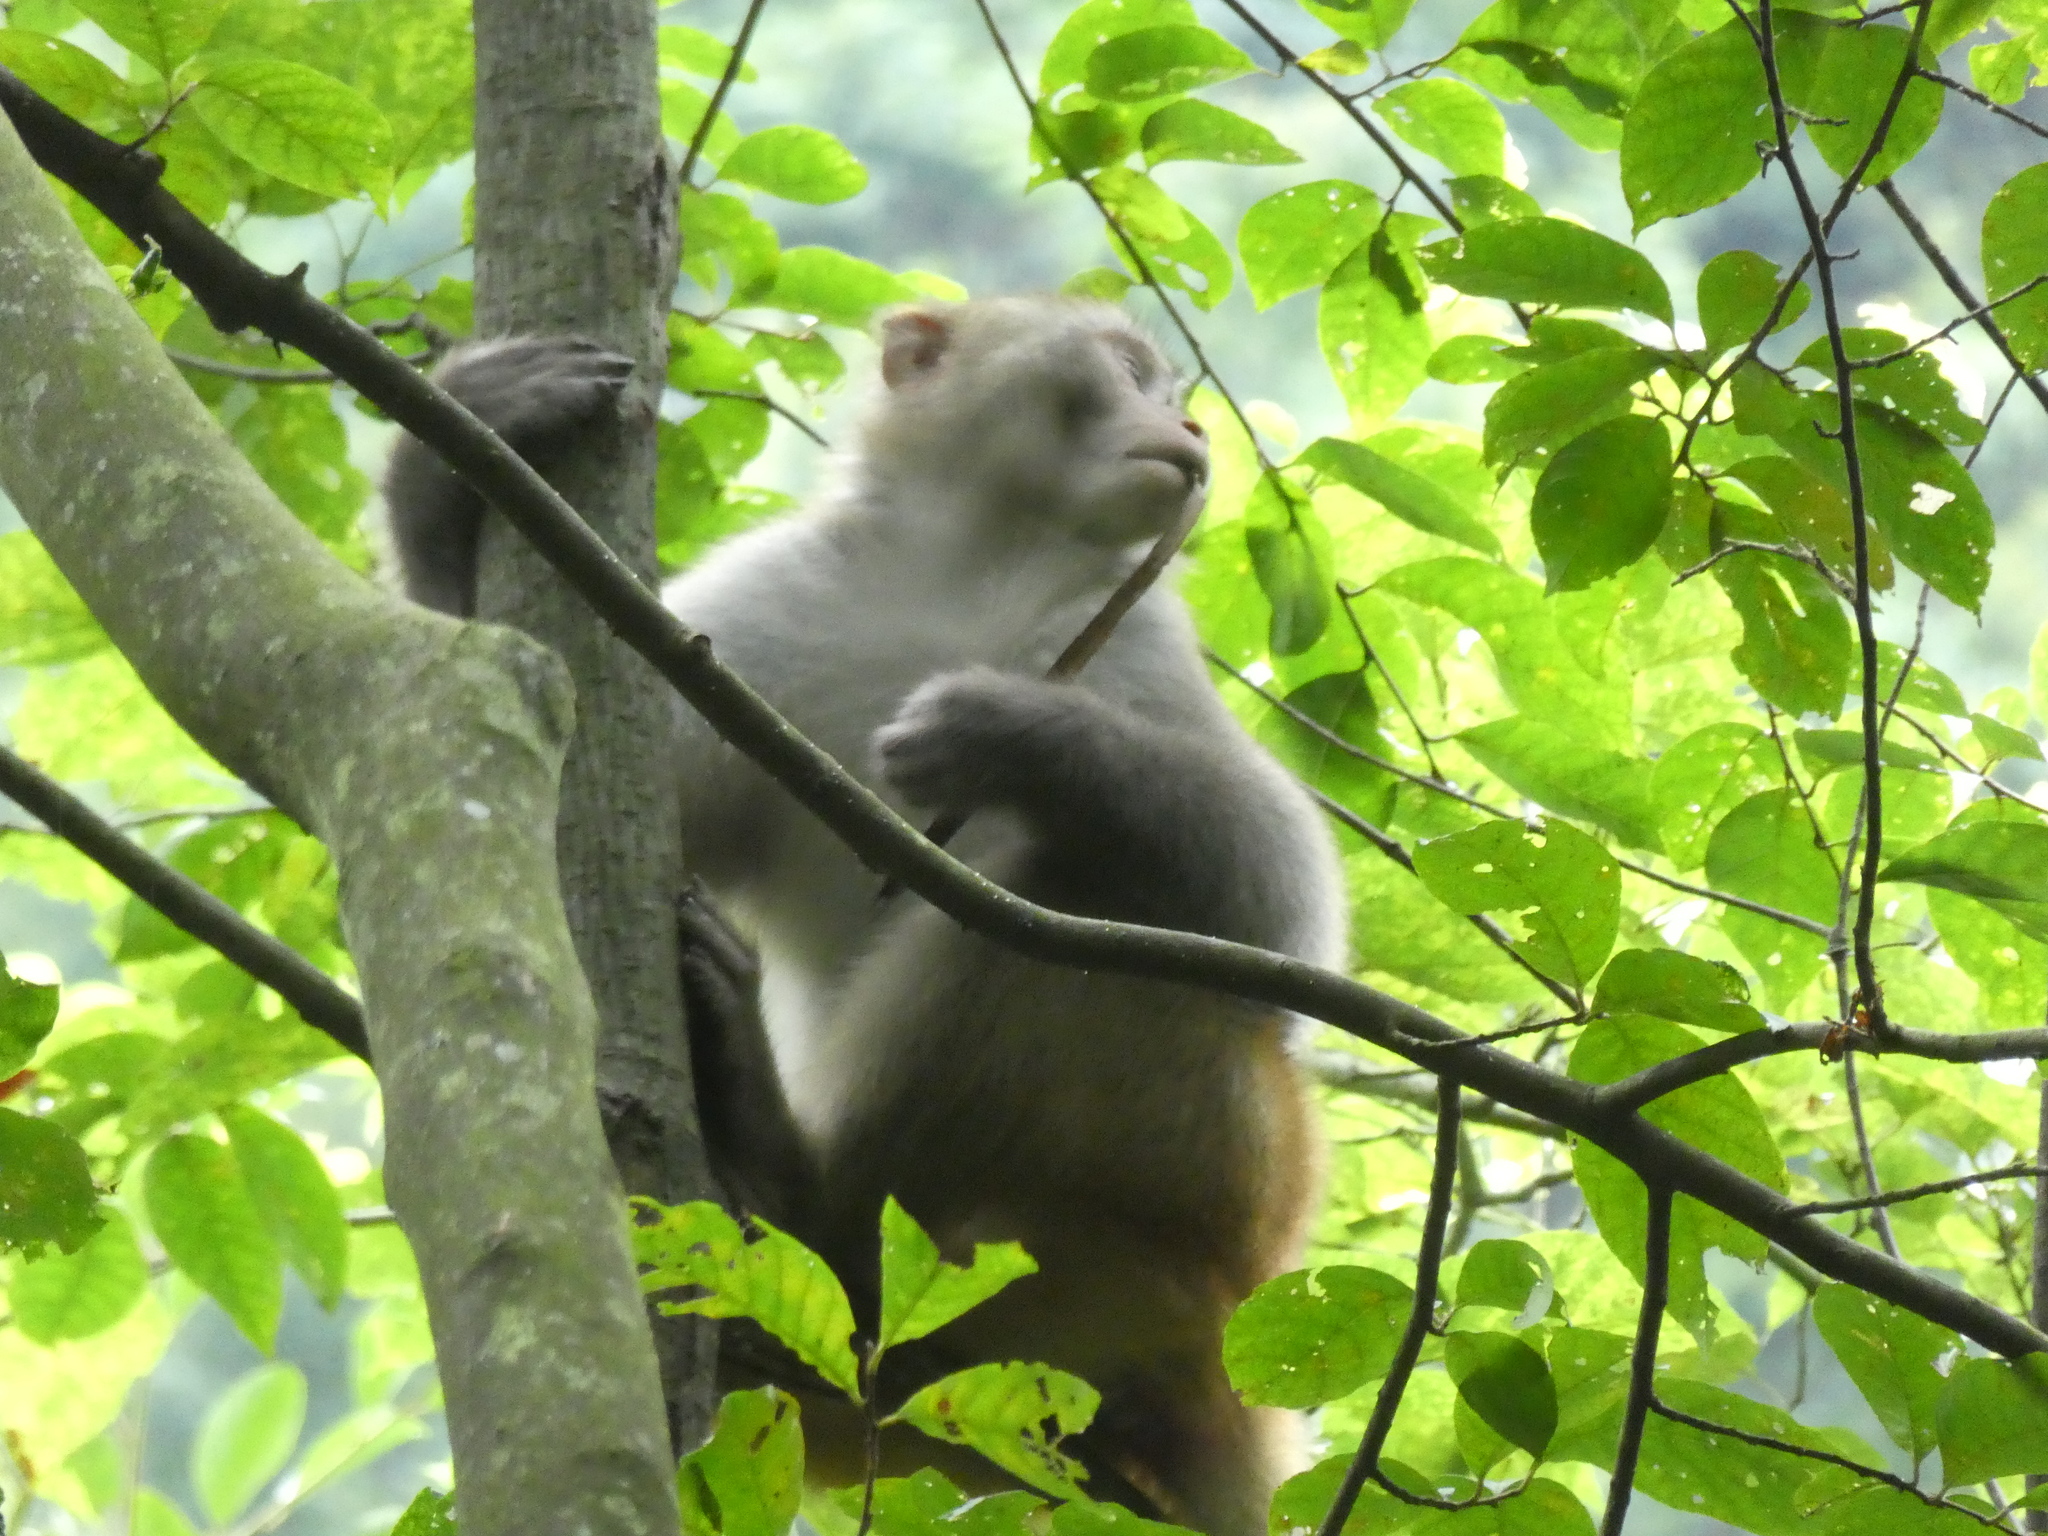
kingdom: Animalia
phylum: Chordata
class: Mammalia
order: Primates
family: Cercopithecidae
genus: Macaca
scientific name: Macaca mulatta
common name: Rhesus monkey
